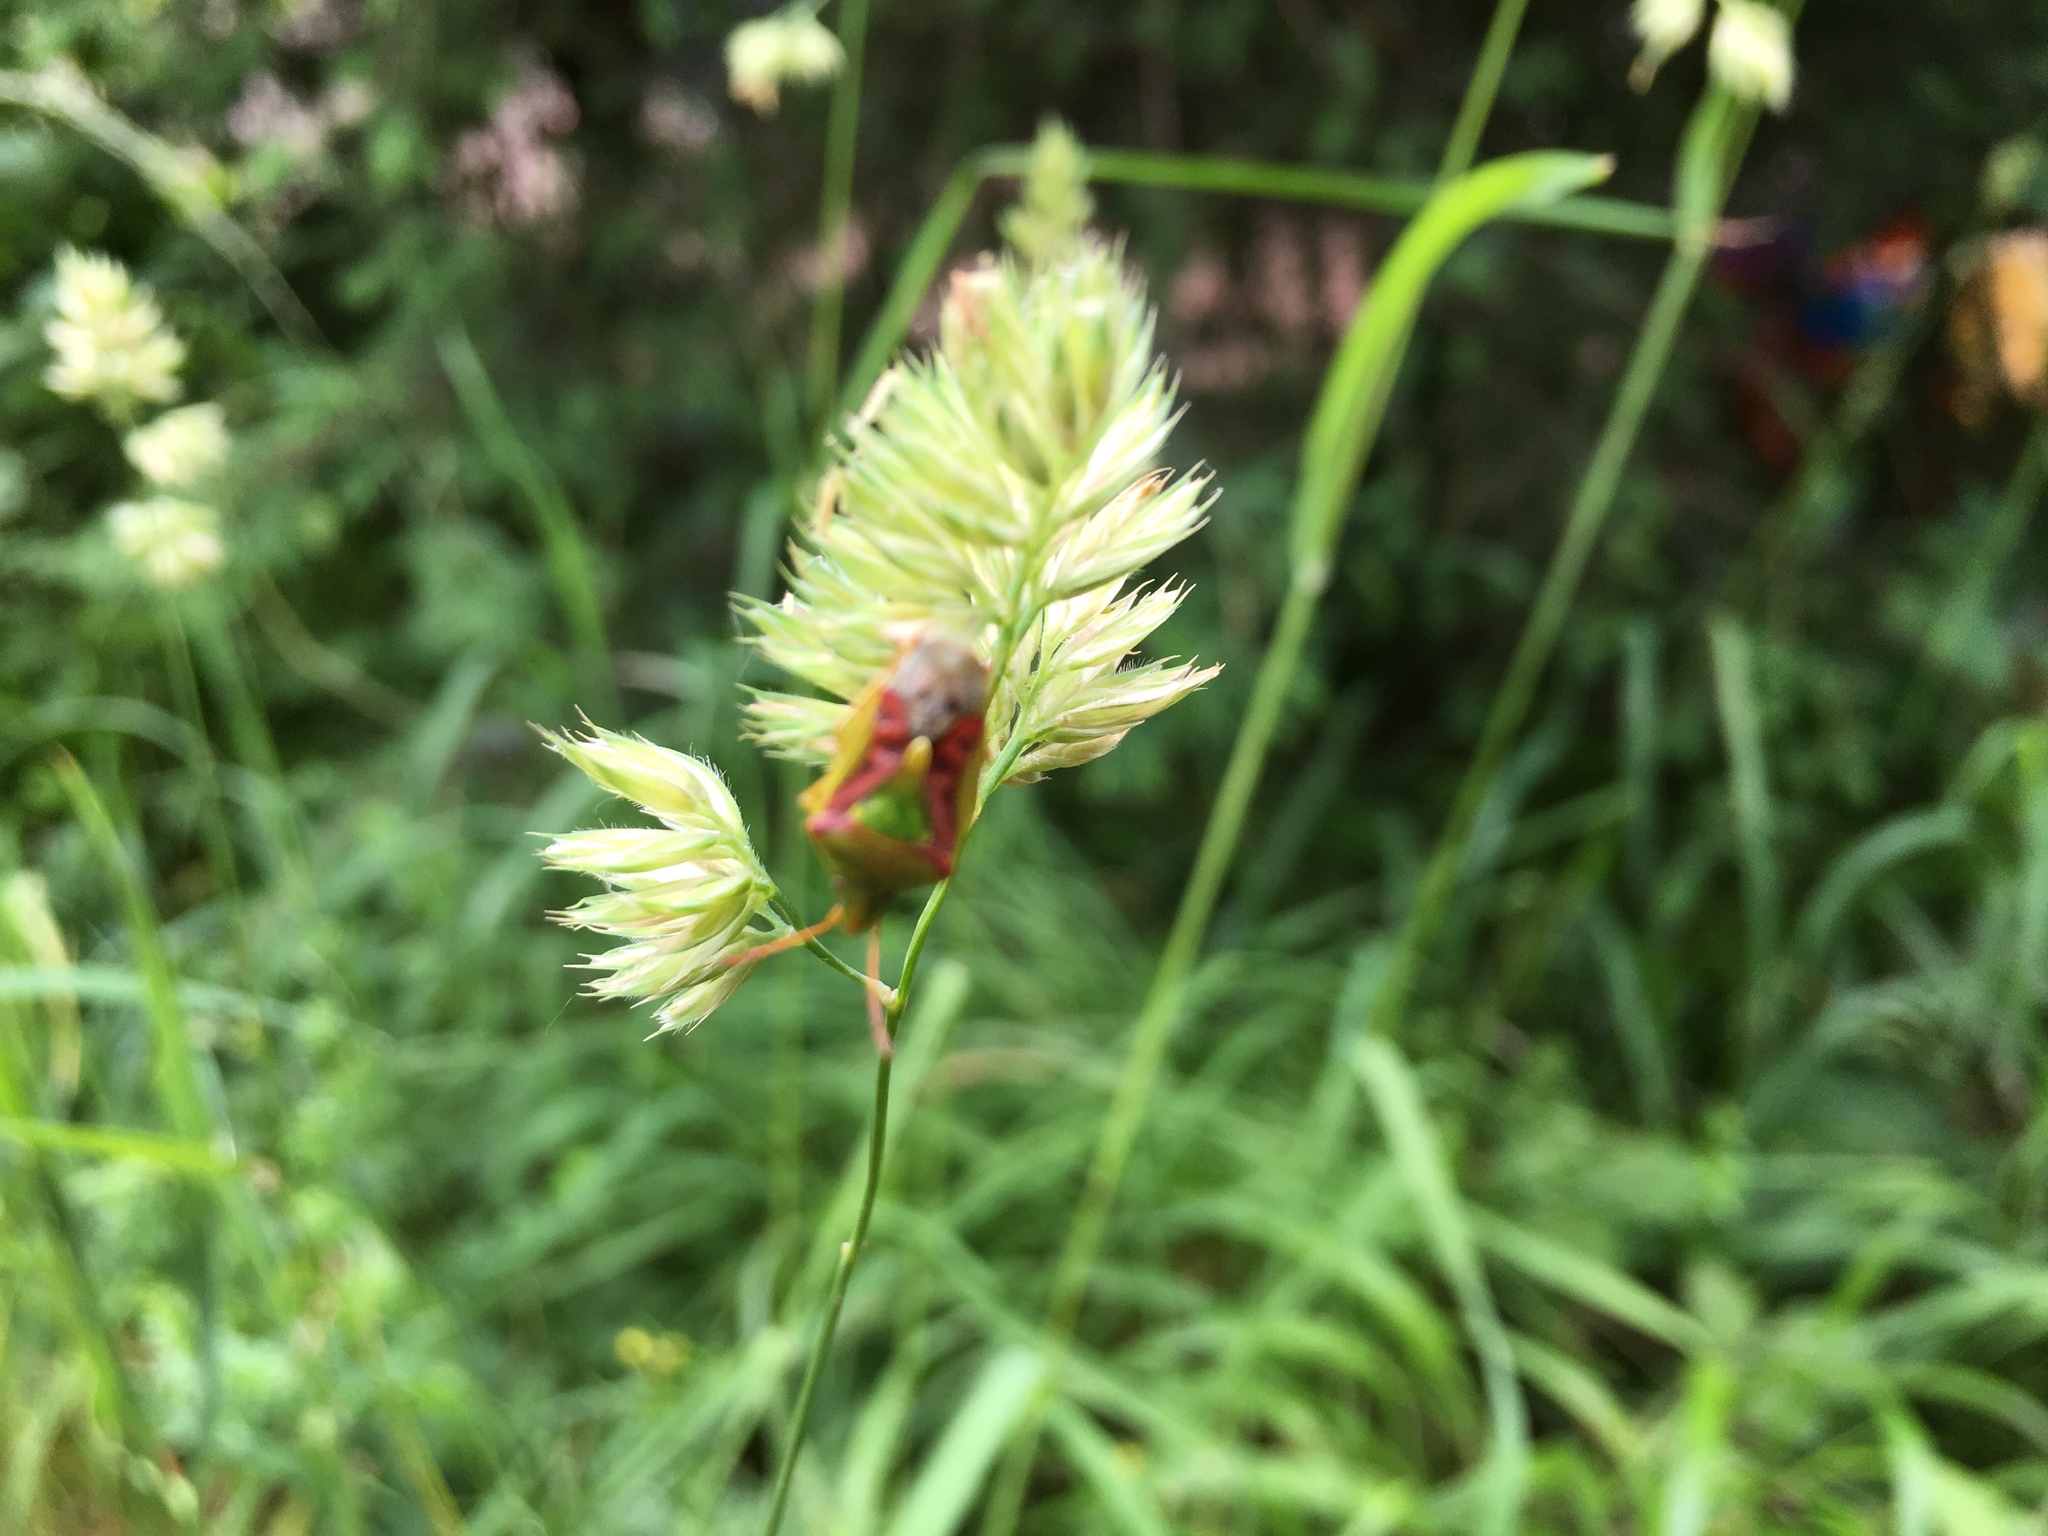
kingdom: Animalia
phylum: Arthropoda
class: Insecta
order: Hemiptera
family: Acanthosomatidae
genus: Cyphostethus
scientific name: Cyphostethus tristriatus
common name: Juniper shieldbug
